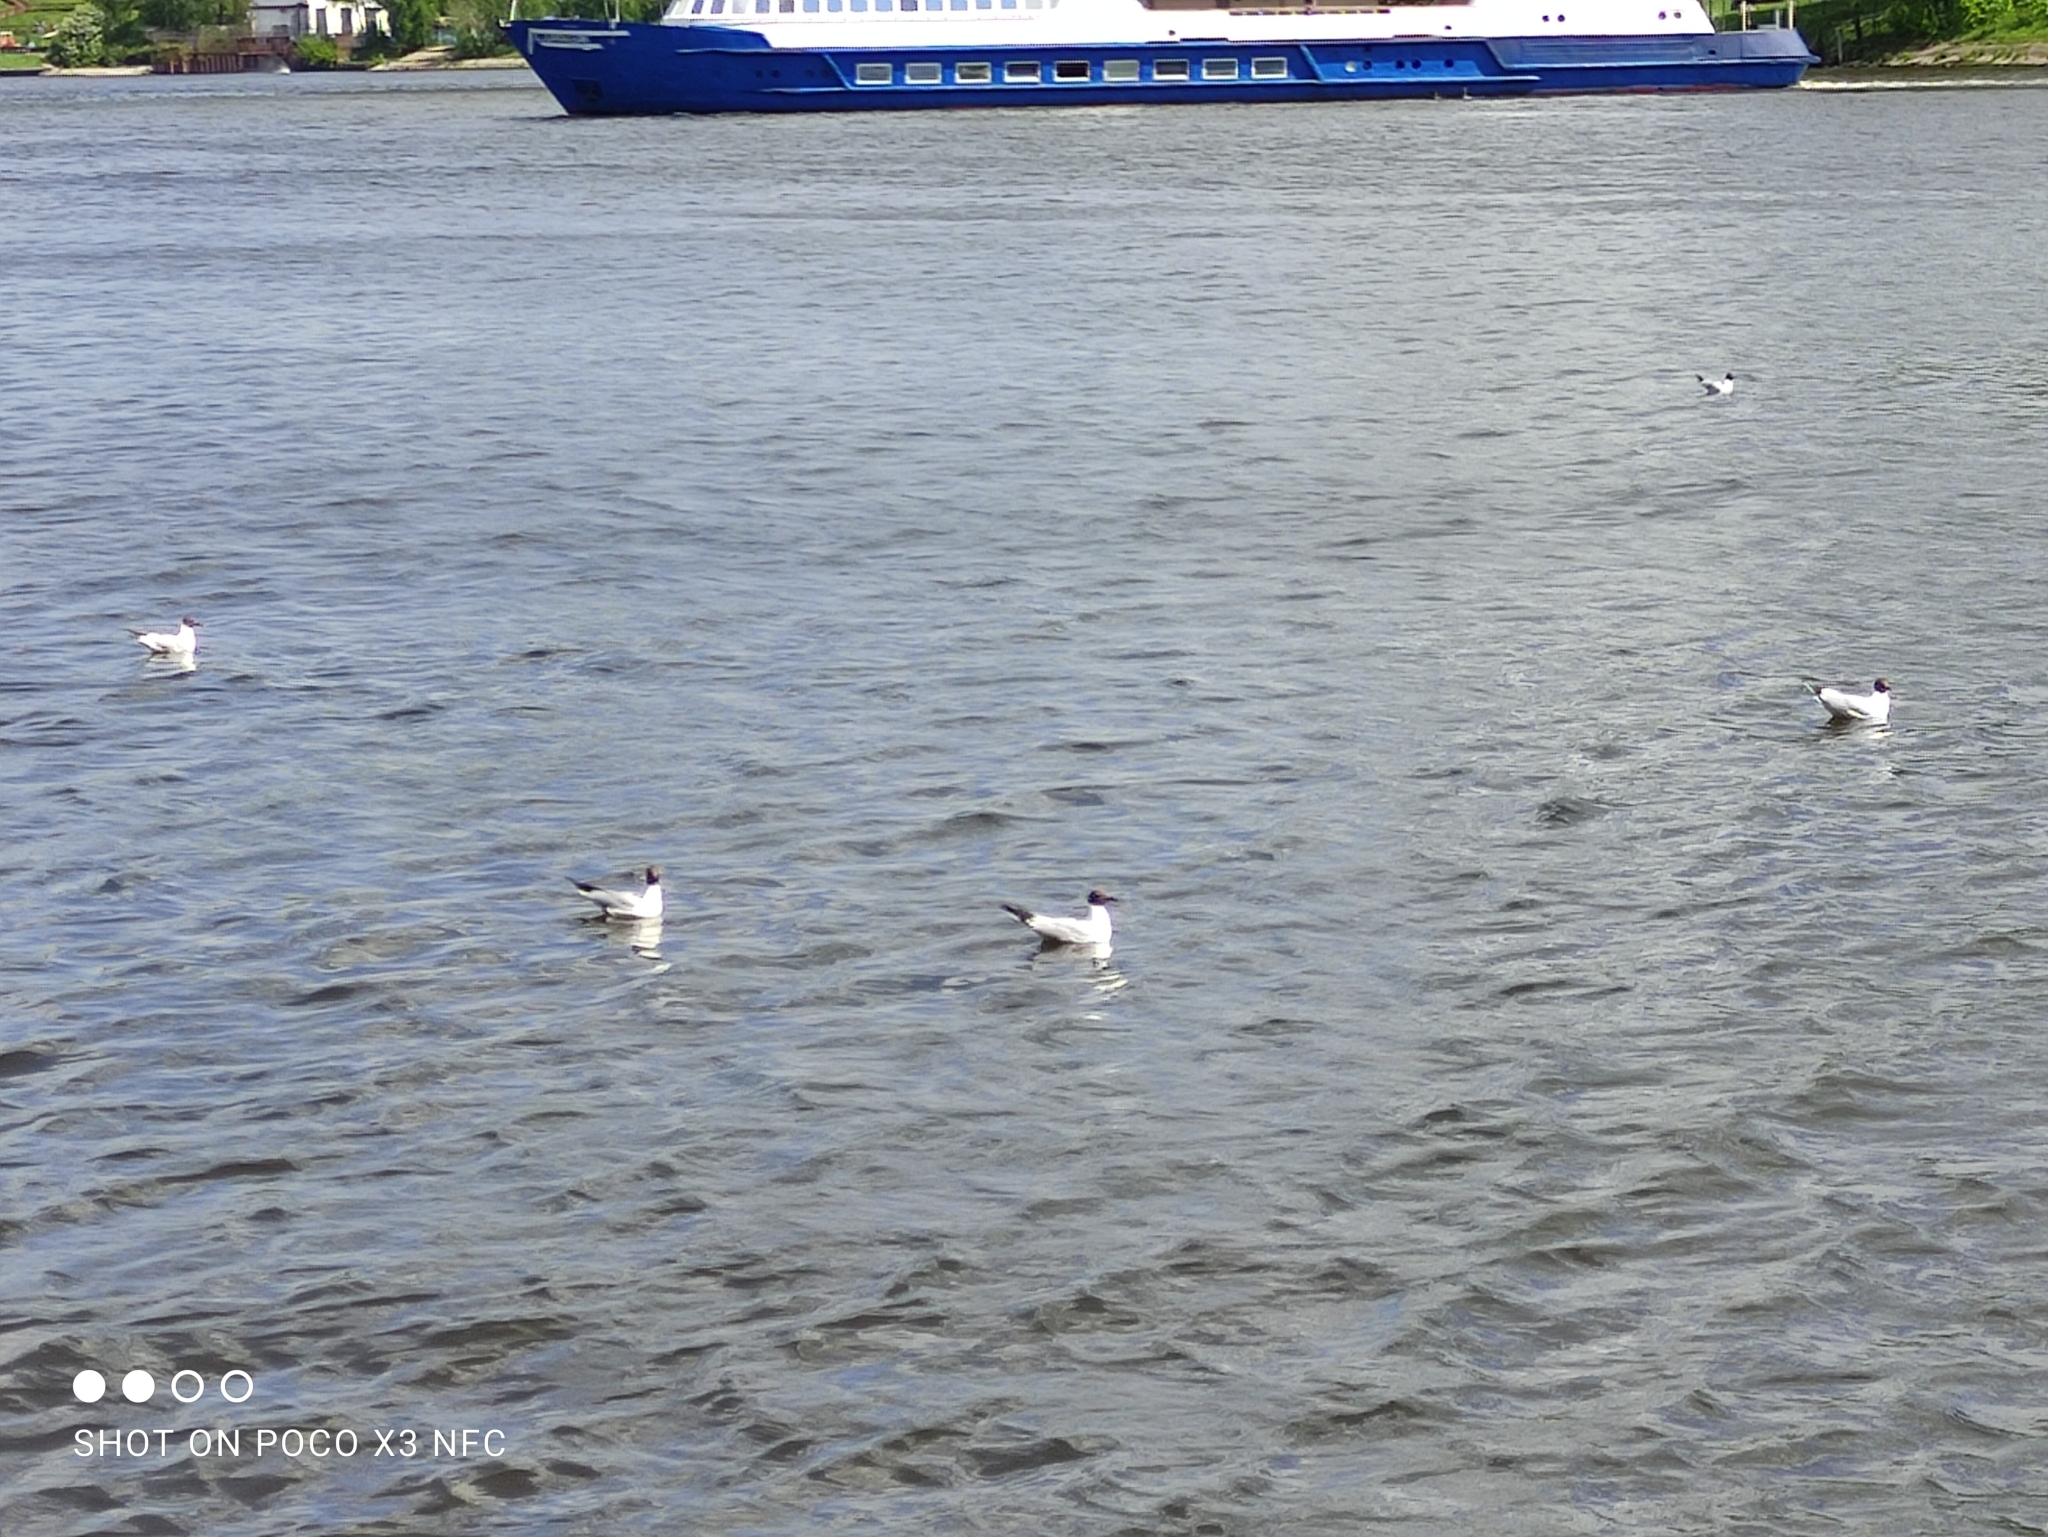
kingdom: Animalia
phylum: Chordata
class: Aves
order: Charadriiformes
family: Laridae
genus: Chroicocephalus
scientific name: Chroicocephalus ridibundus
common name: Black-headed gull
